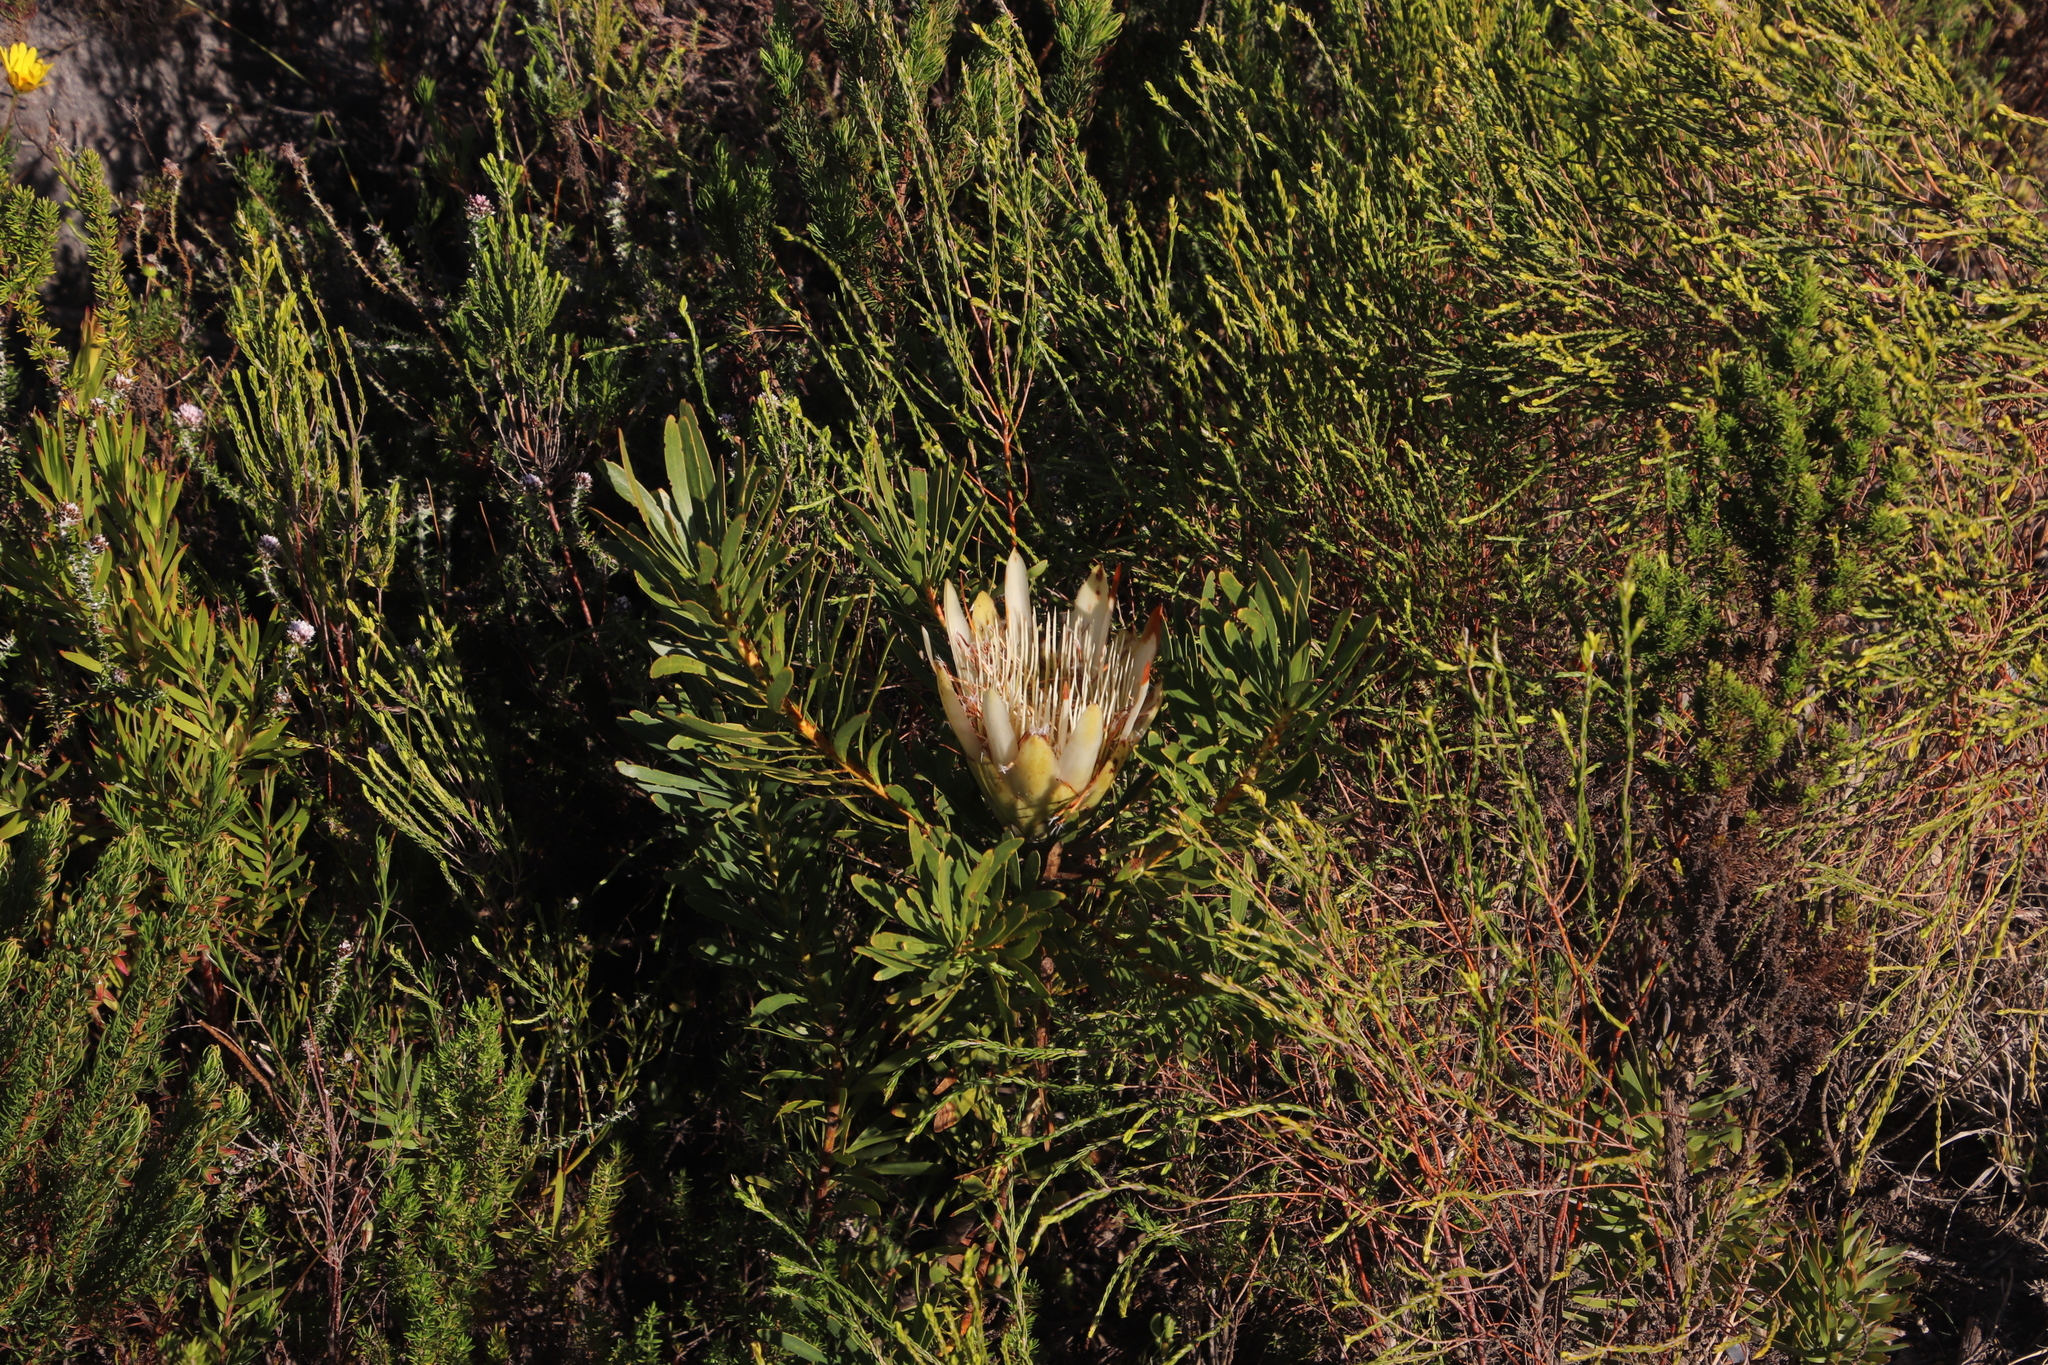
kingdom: Plantae
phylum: Tracheophyta
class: Magnoliopsida
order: Proteales
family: Proteaceae
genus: Protea
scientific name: Protea repens
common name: Sugarbush
